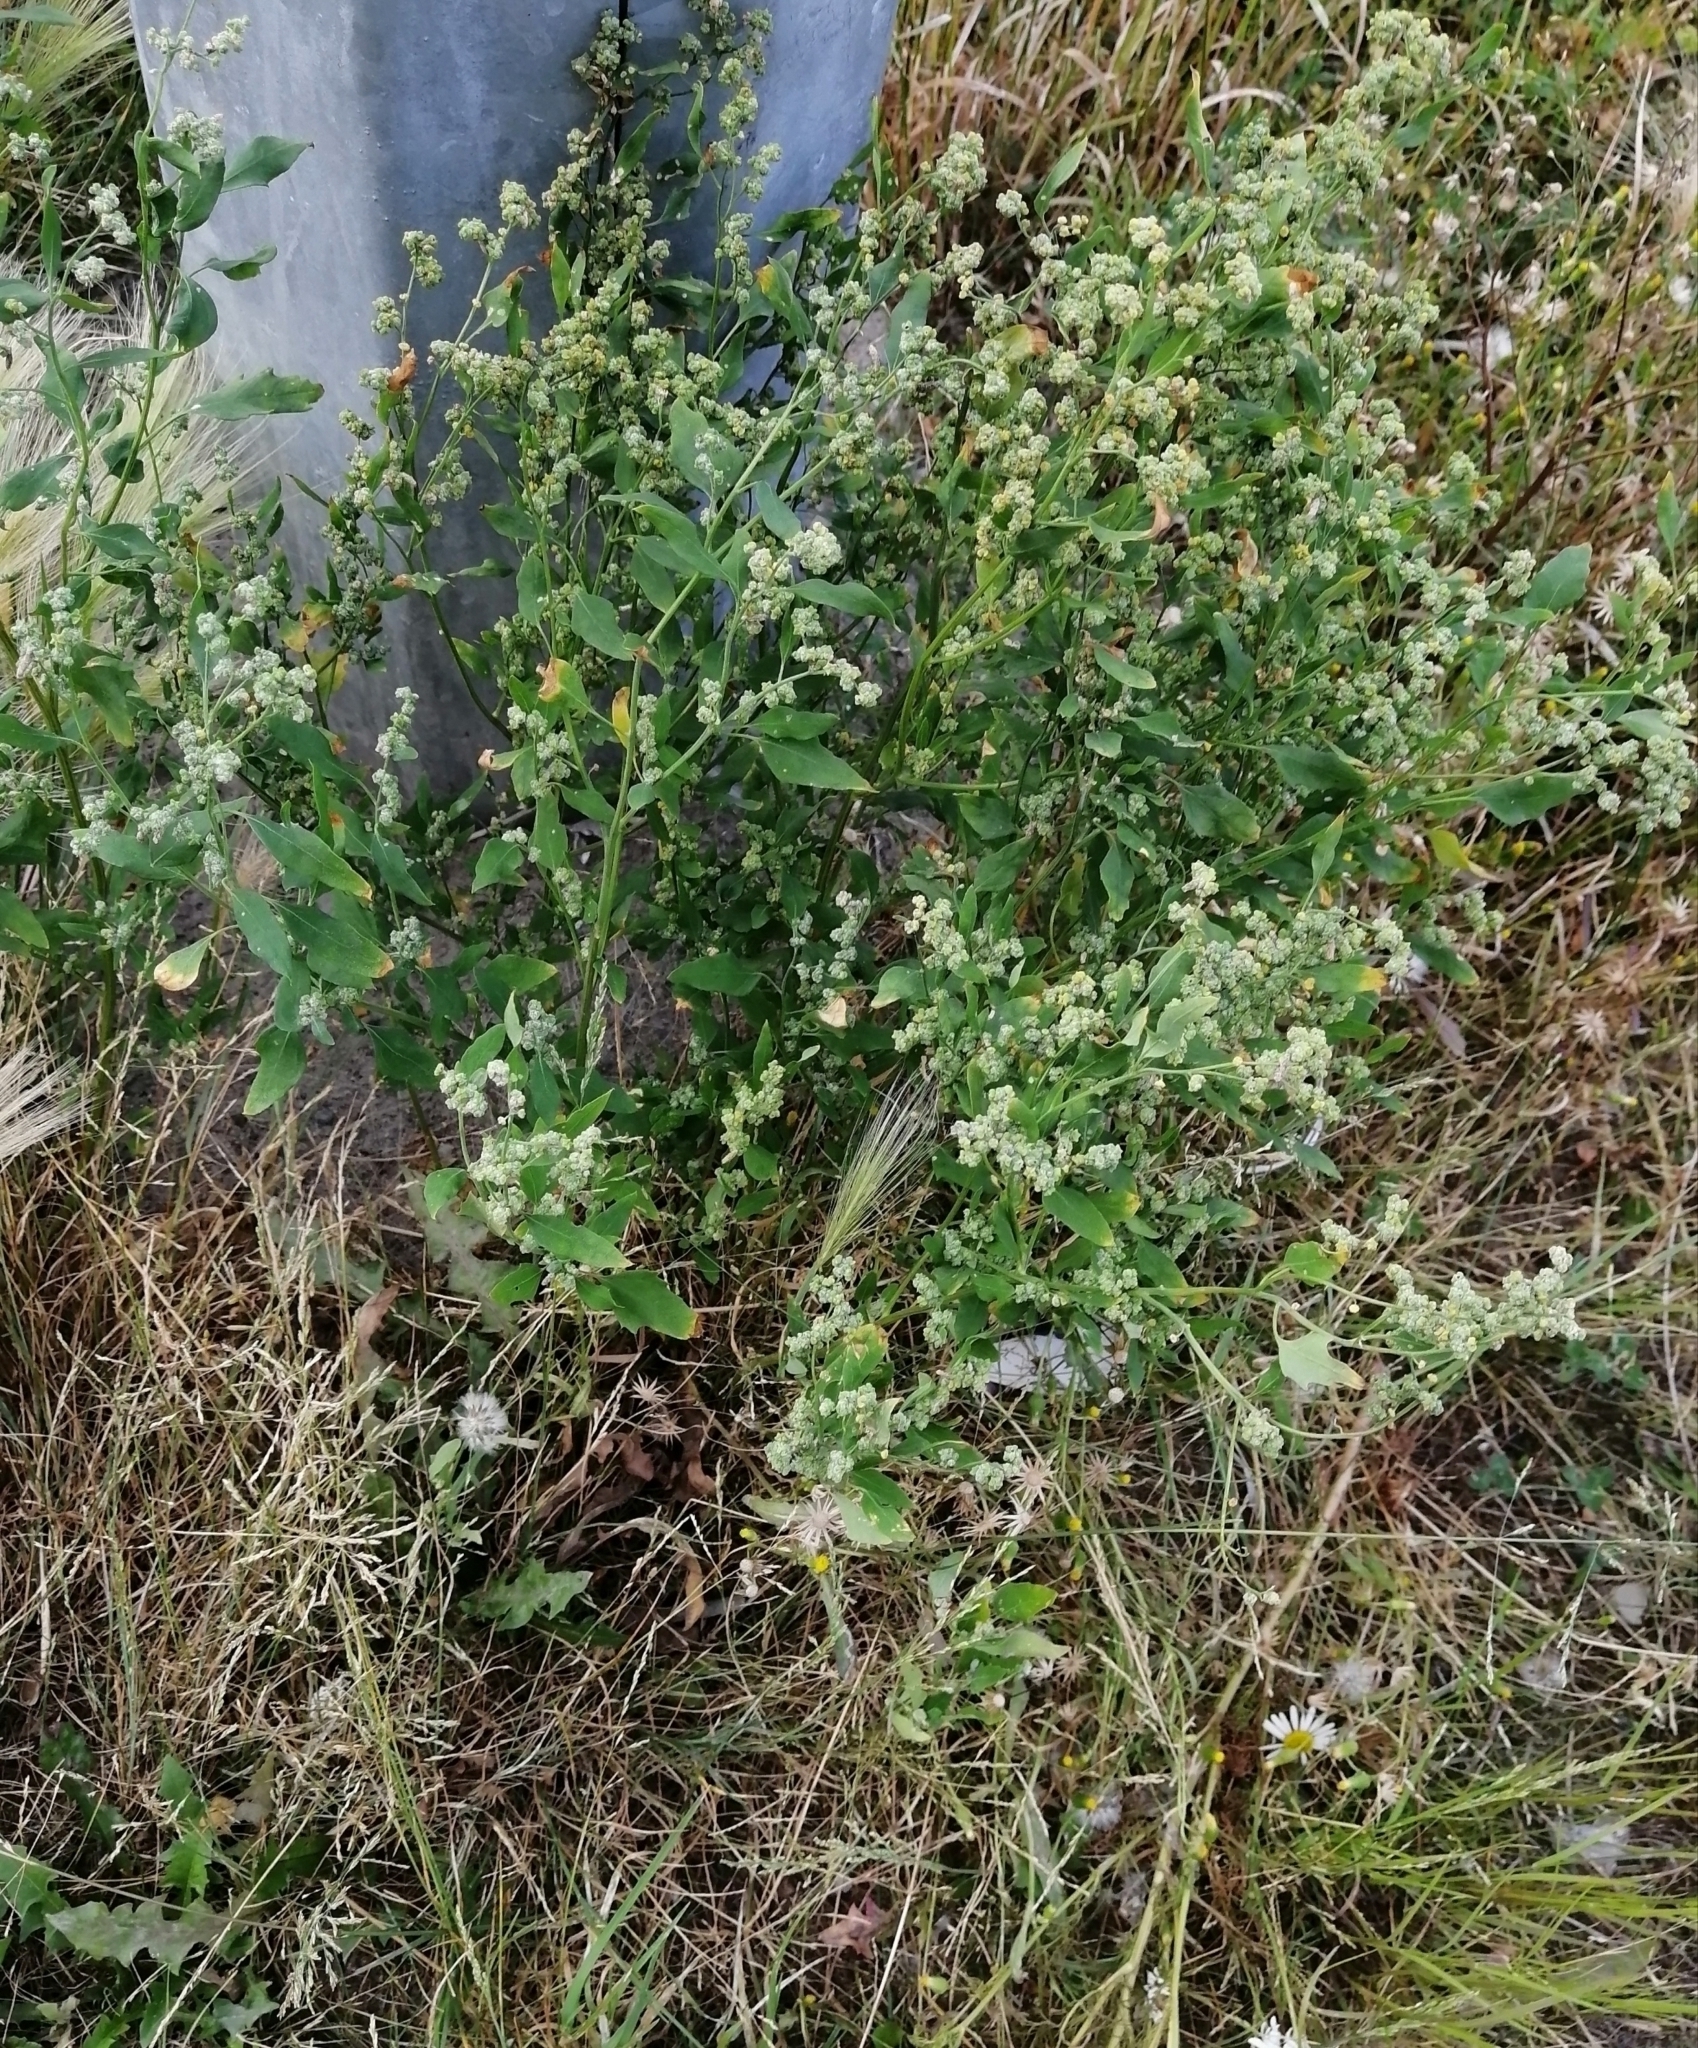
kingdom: Plantae
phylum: Tracheophyta
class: Magnoliopsida
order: Caryophyllales
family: Amaranthaceae
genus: Chenopodium
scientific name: Chenopodium album
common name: Fat-hen
